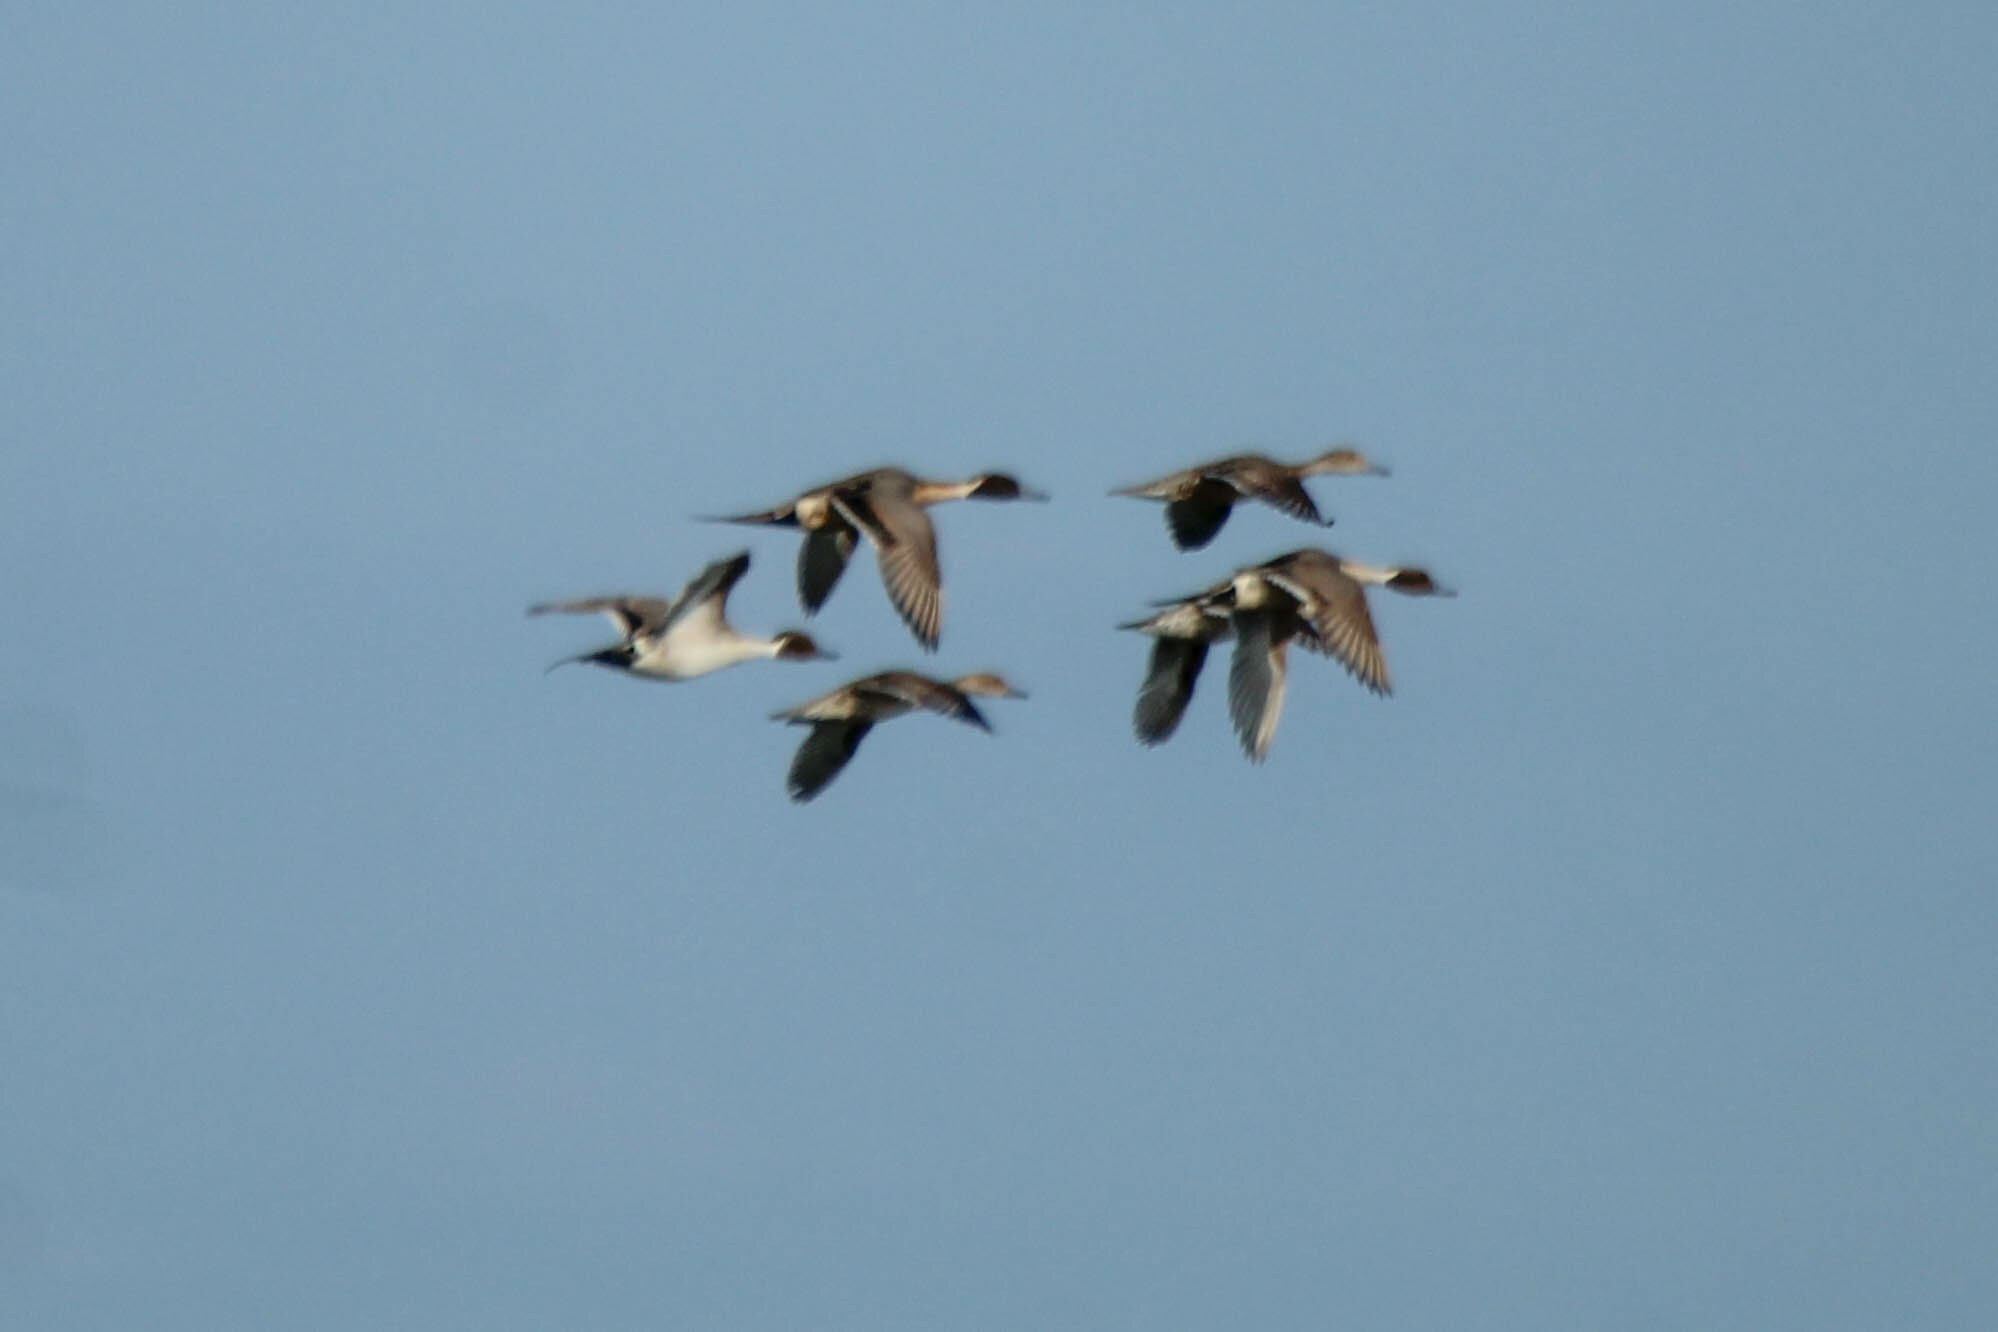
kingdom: Animalia
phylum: Chordata
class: Aves
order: Anseriformes
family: Anatidae
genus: Anas
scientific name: Anas acuta
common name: Northern pintail
